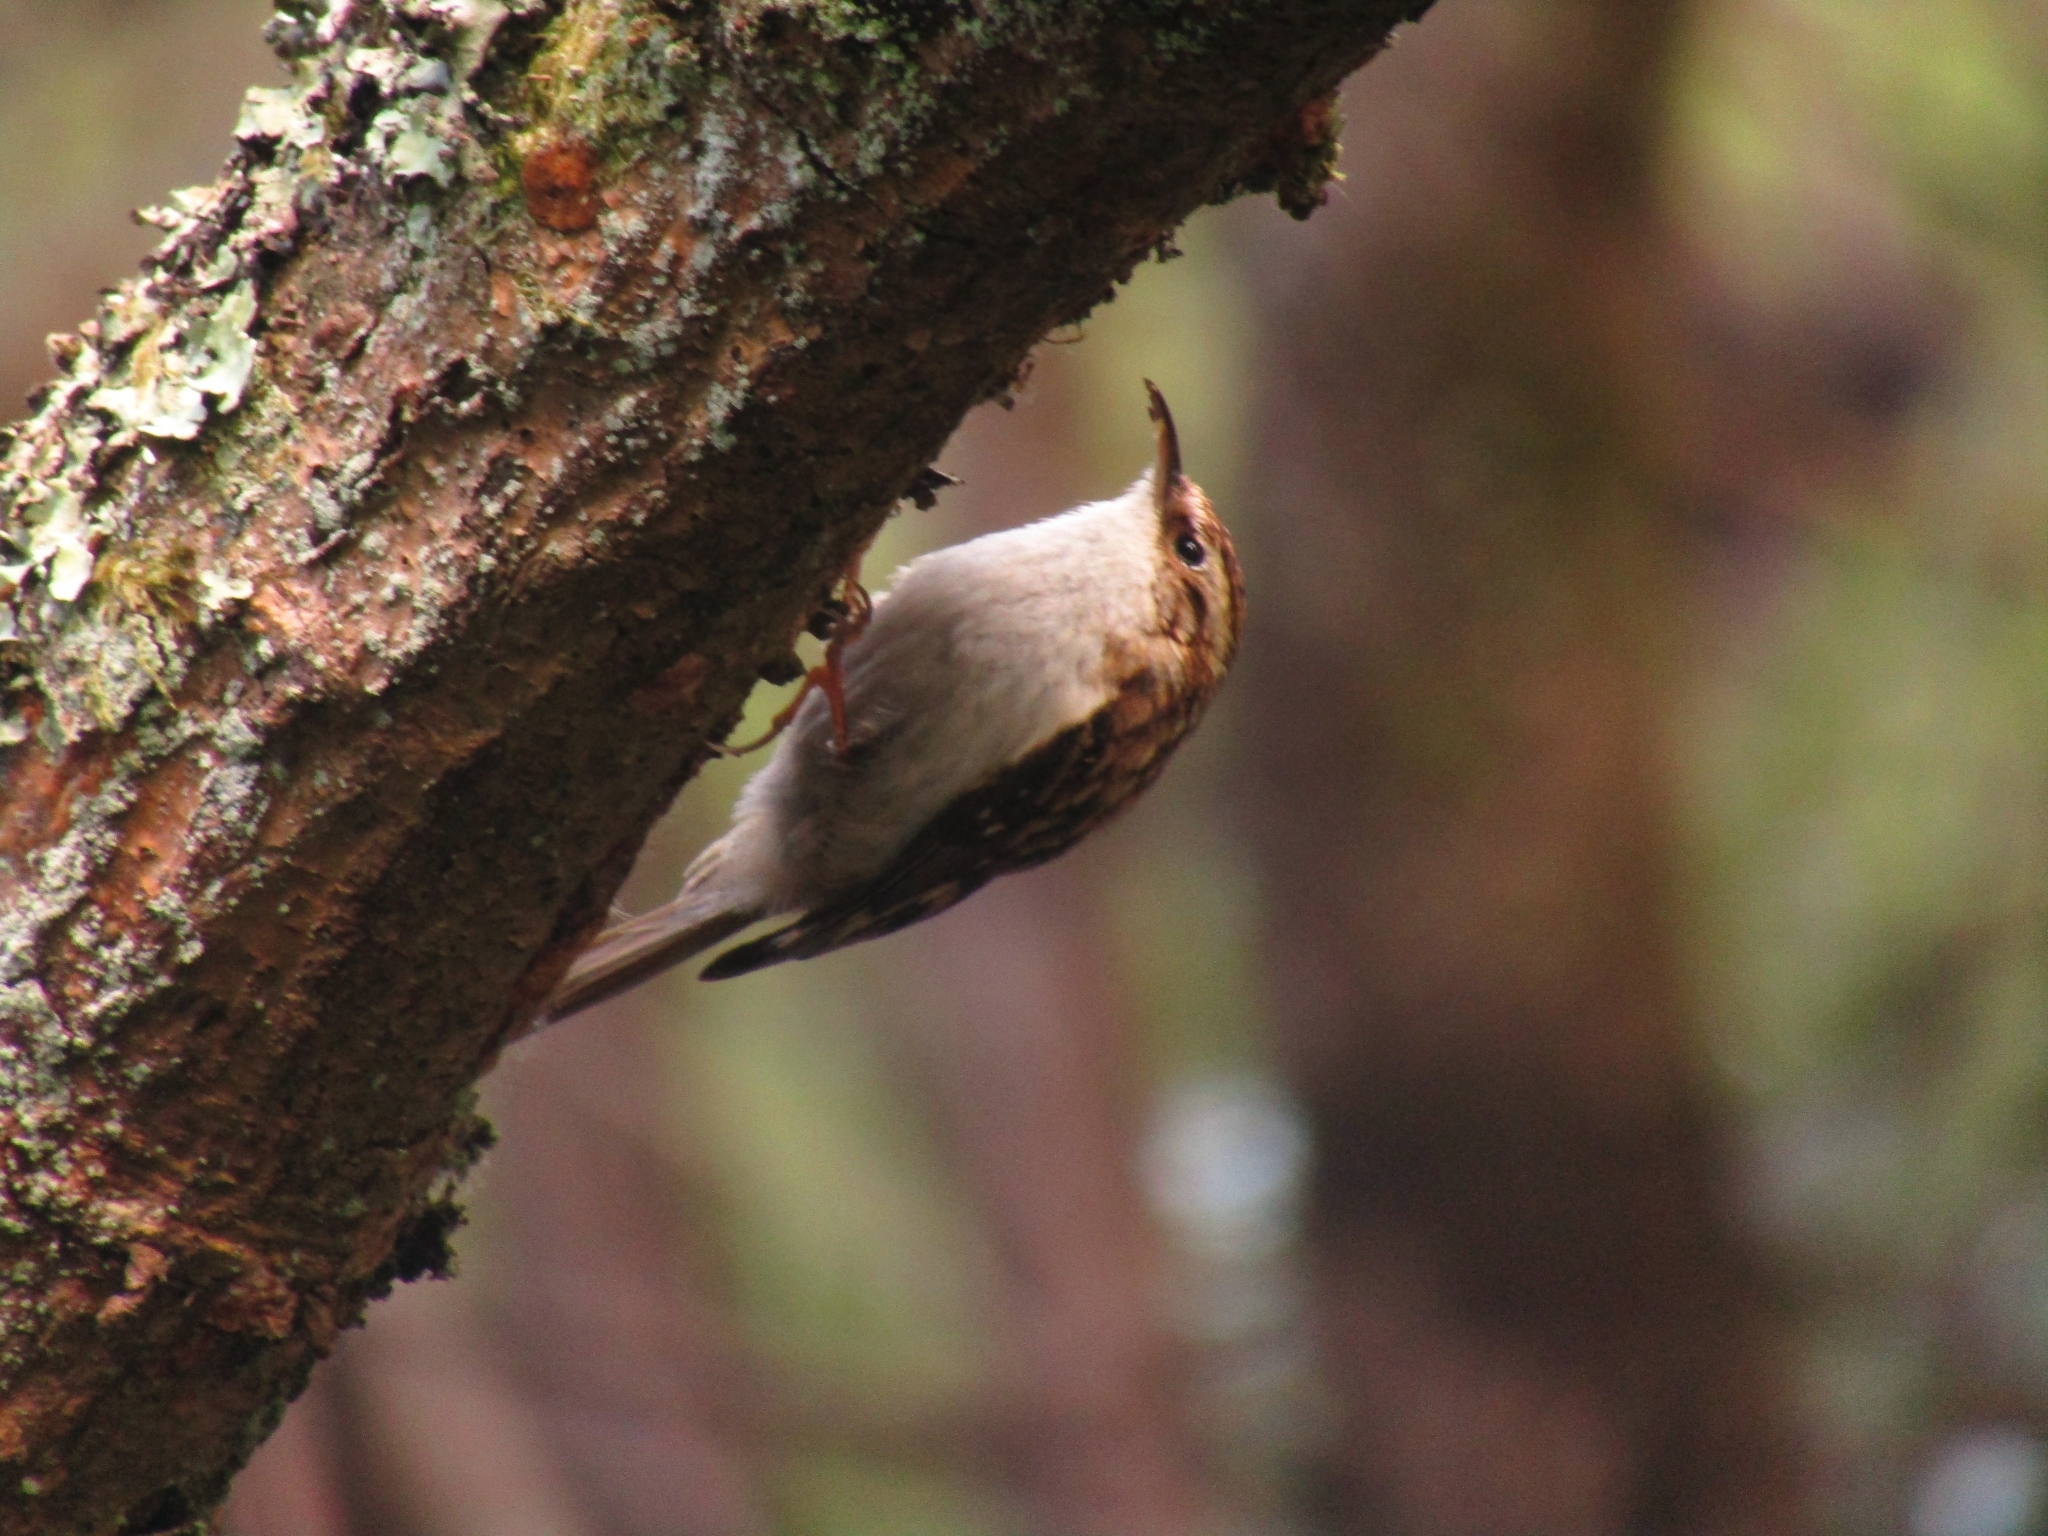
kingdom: Animalia
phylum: Chordata
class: Aves
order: Passeriformes
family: Certhiidae
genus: Certhia
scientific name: Certhia familiaris
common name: Eurasian treecreeper
